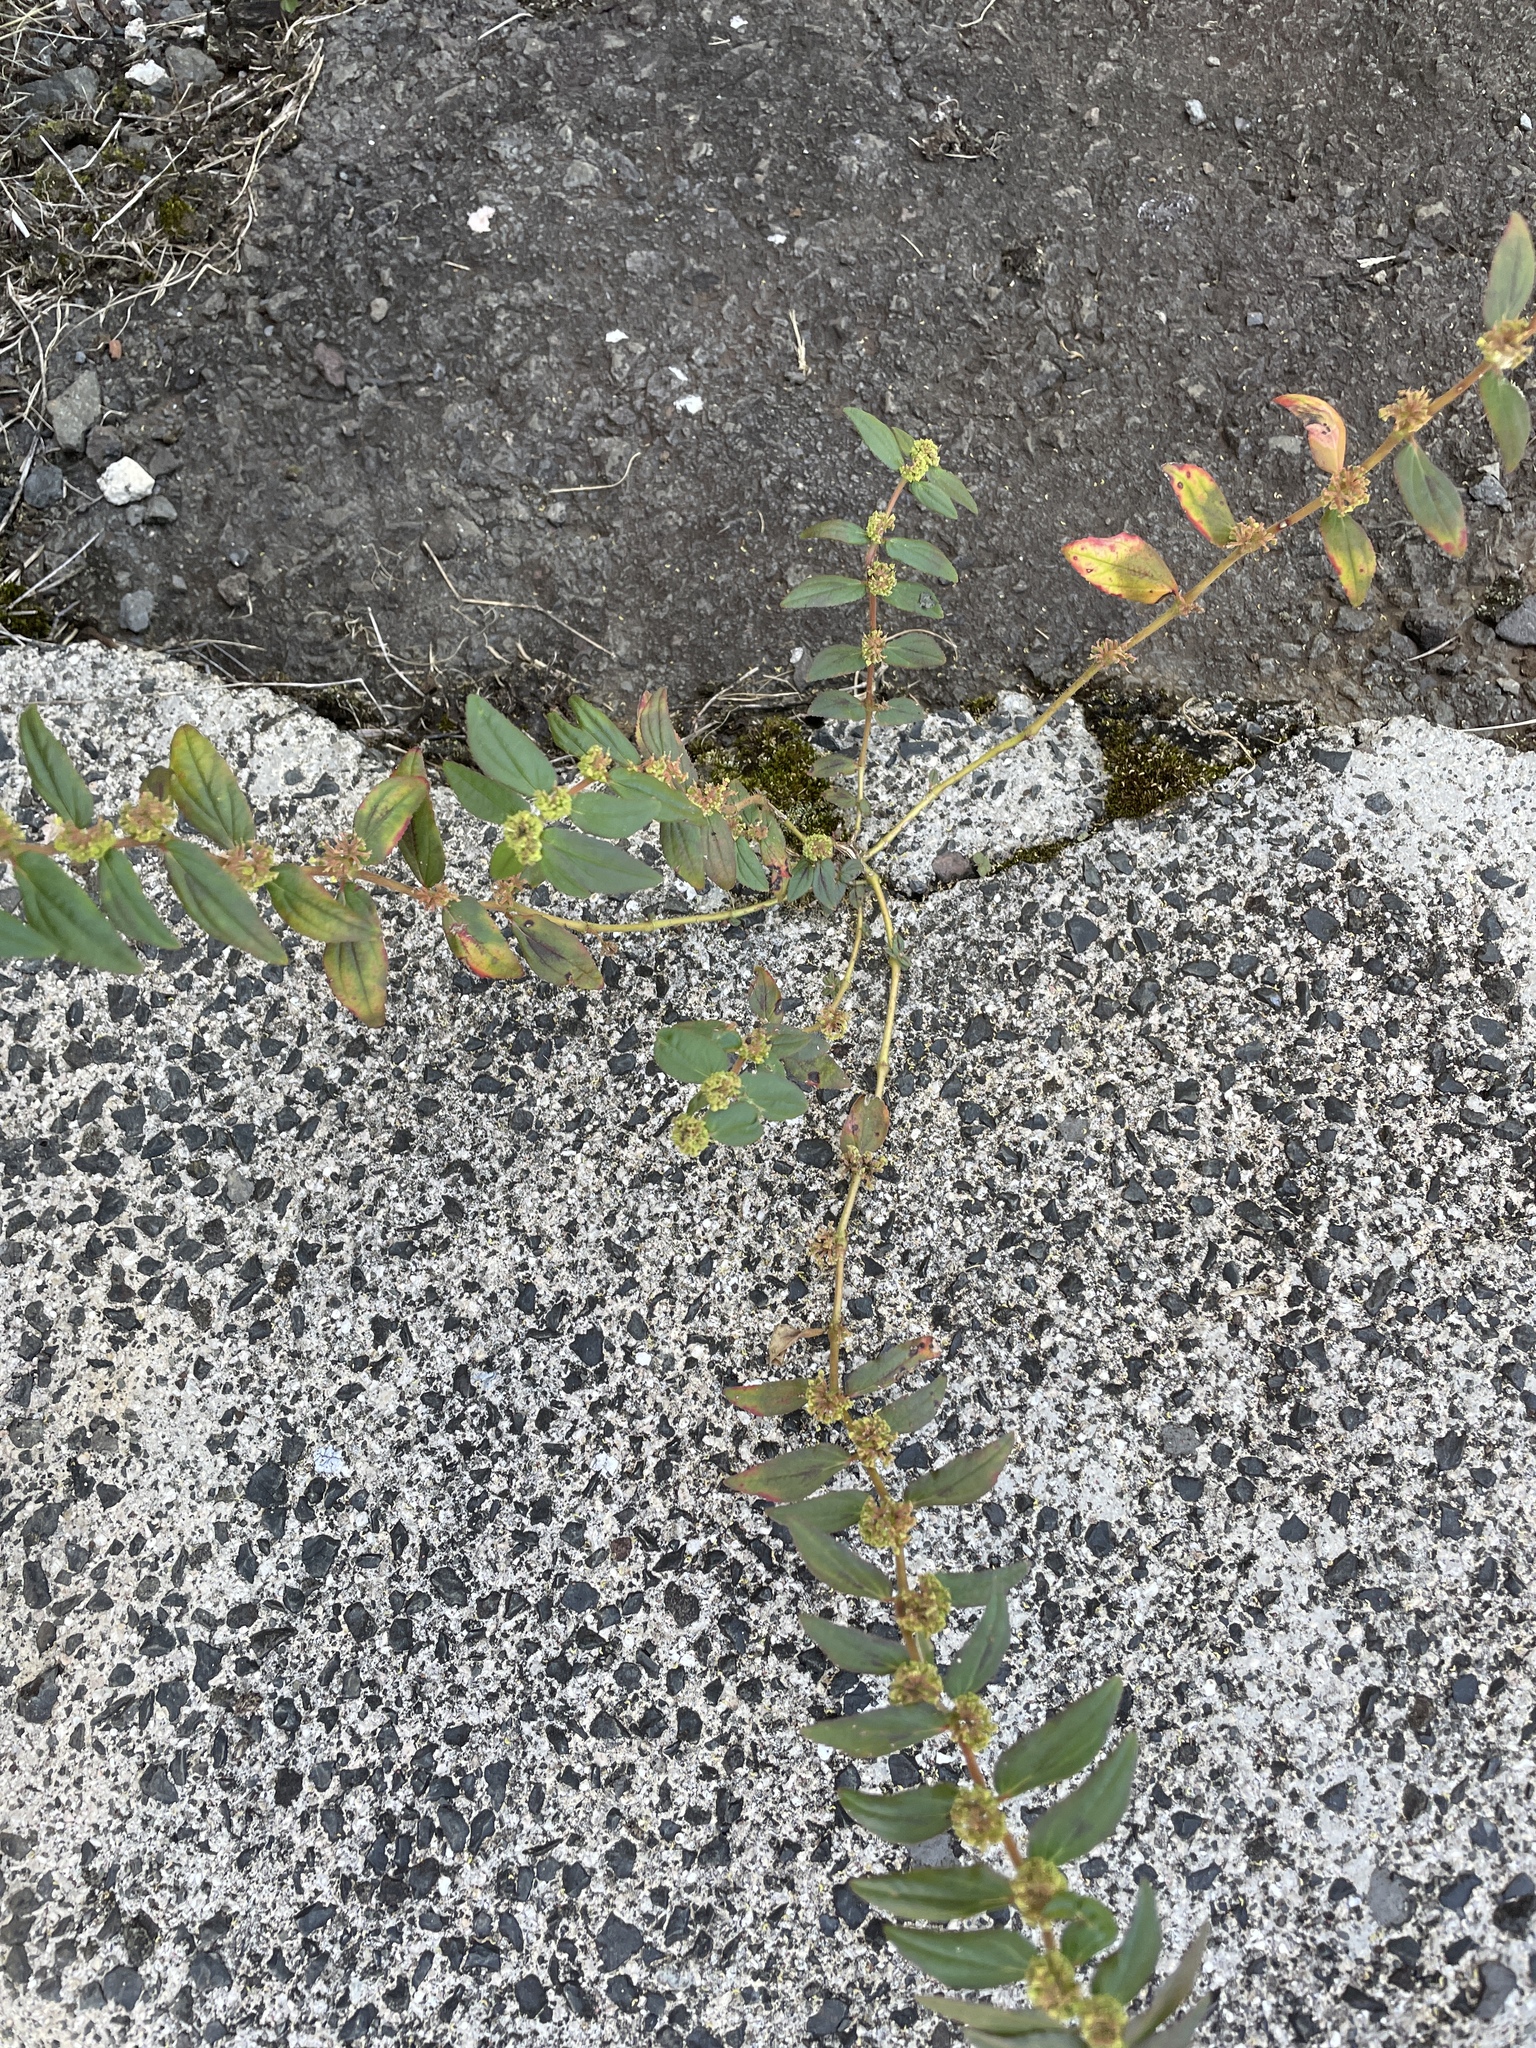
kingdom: Plantae
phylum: Tracheophyta
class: Magnoliopsida
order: Malpighiales
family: Euphorbiaceae
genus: Euphorbia
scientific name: Euphorbia hirta
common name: Pillpod sandmat
